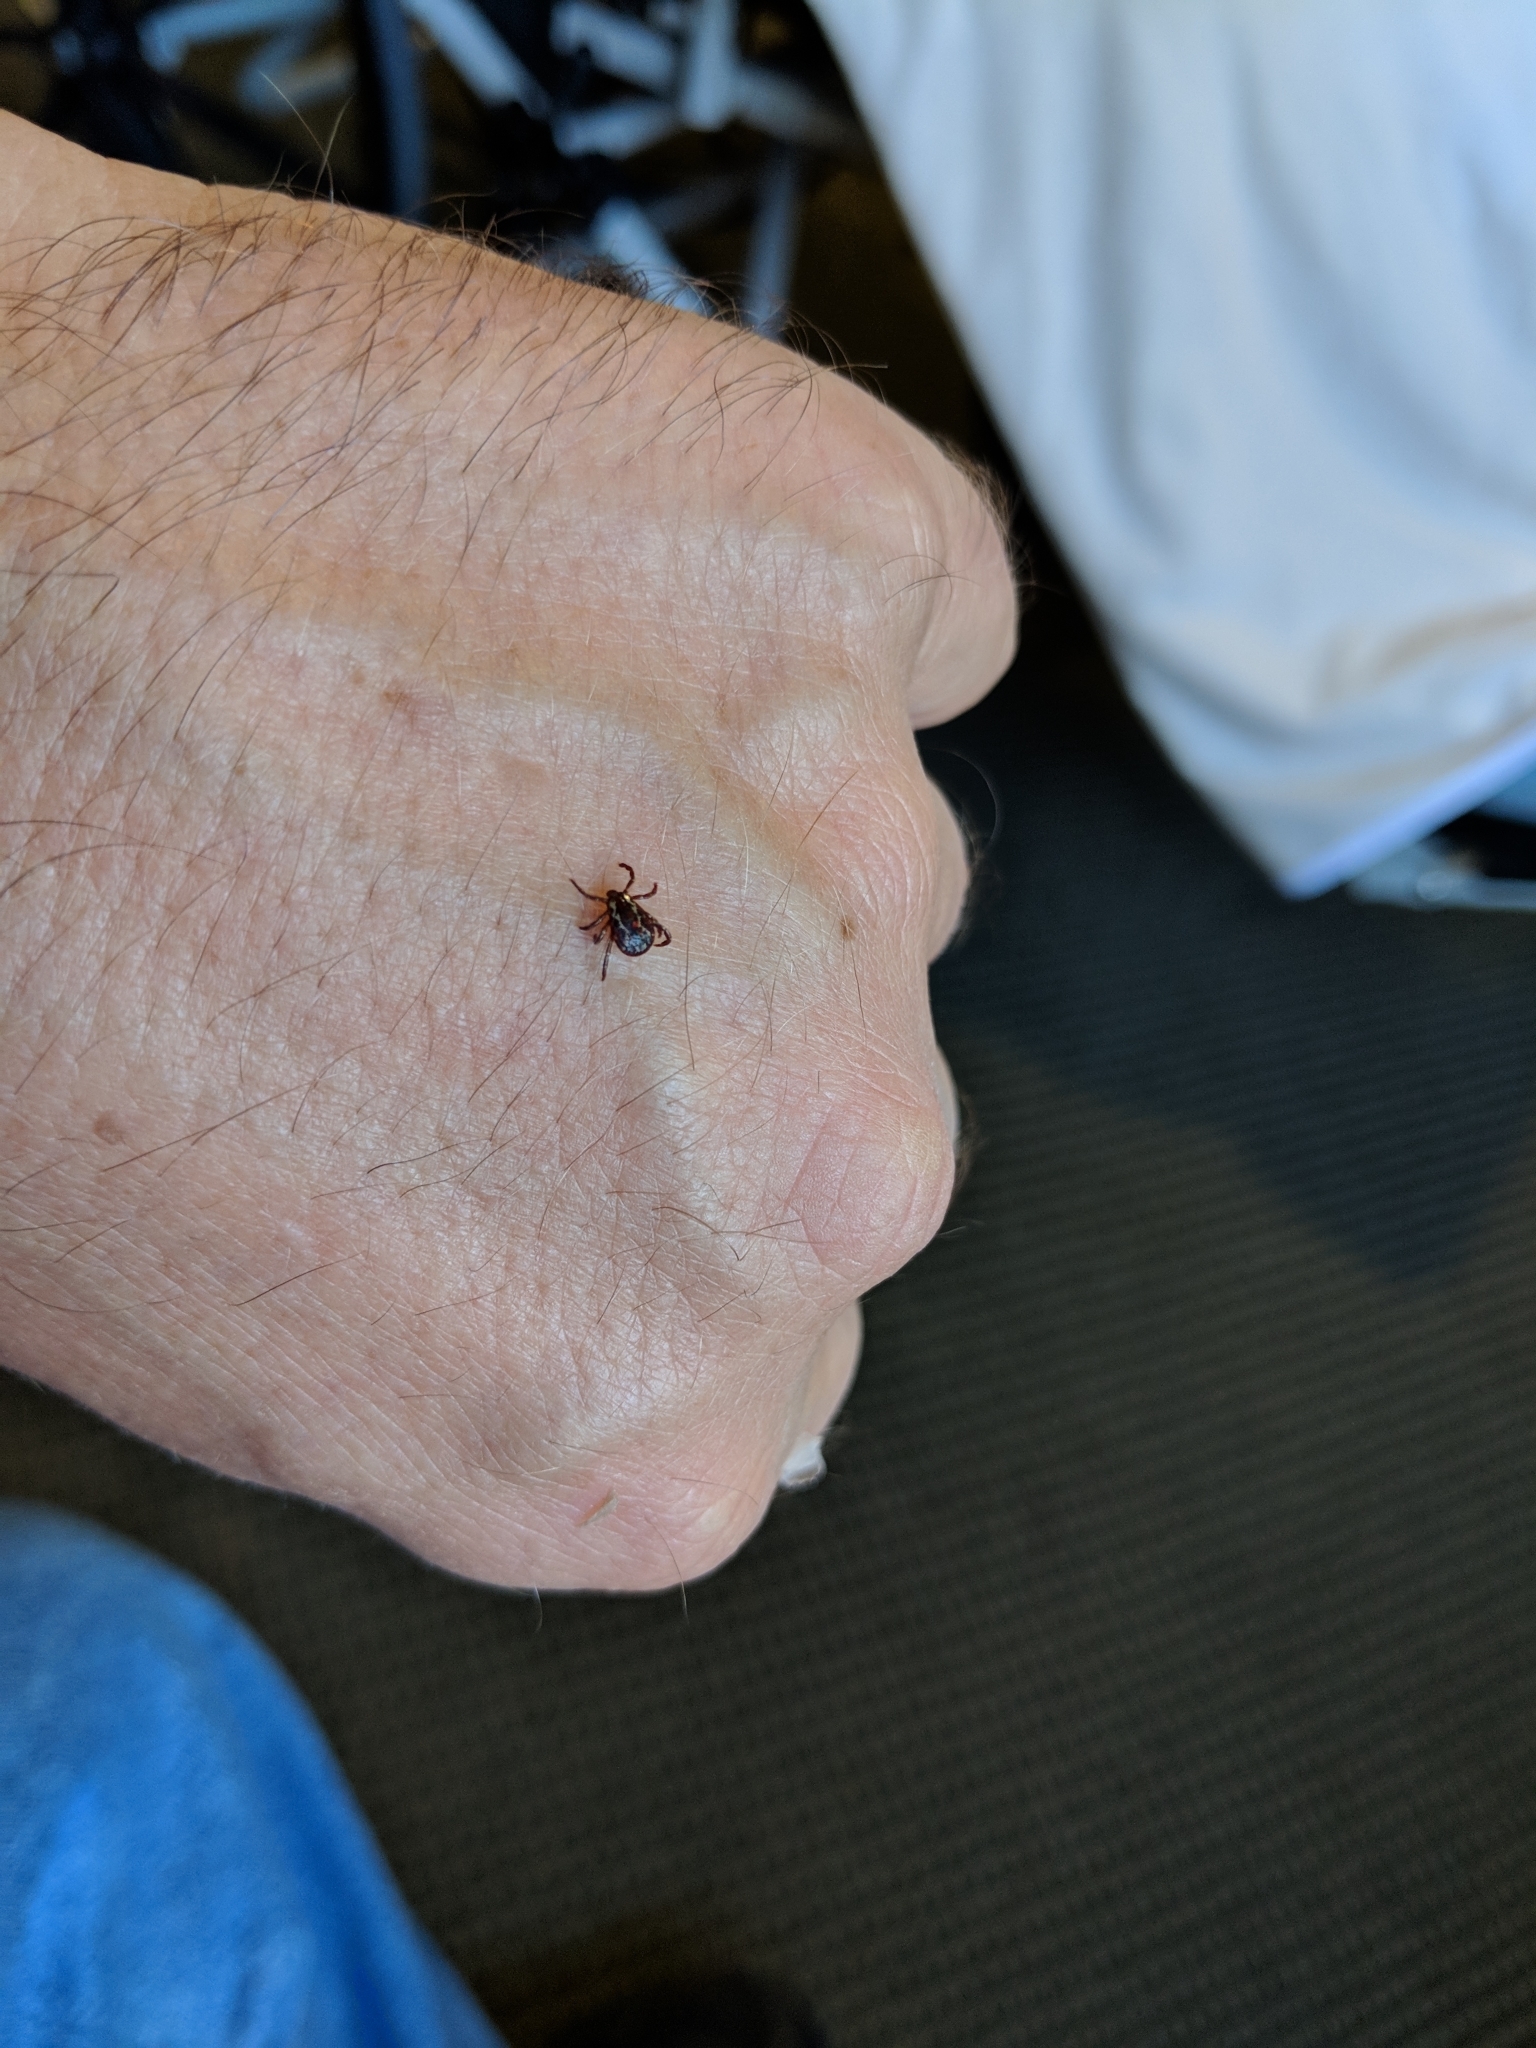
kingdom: Animalia
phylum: Arthropoda
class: Arachnida
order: Ixodida
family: Ixodidae
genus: Dermacentor
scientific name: Dermacentor variabilis
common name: American dog tick
